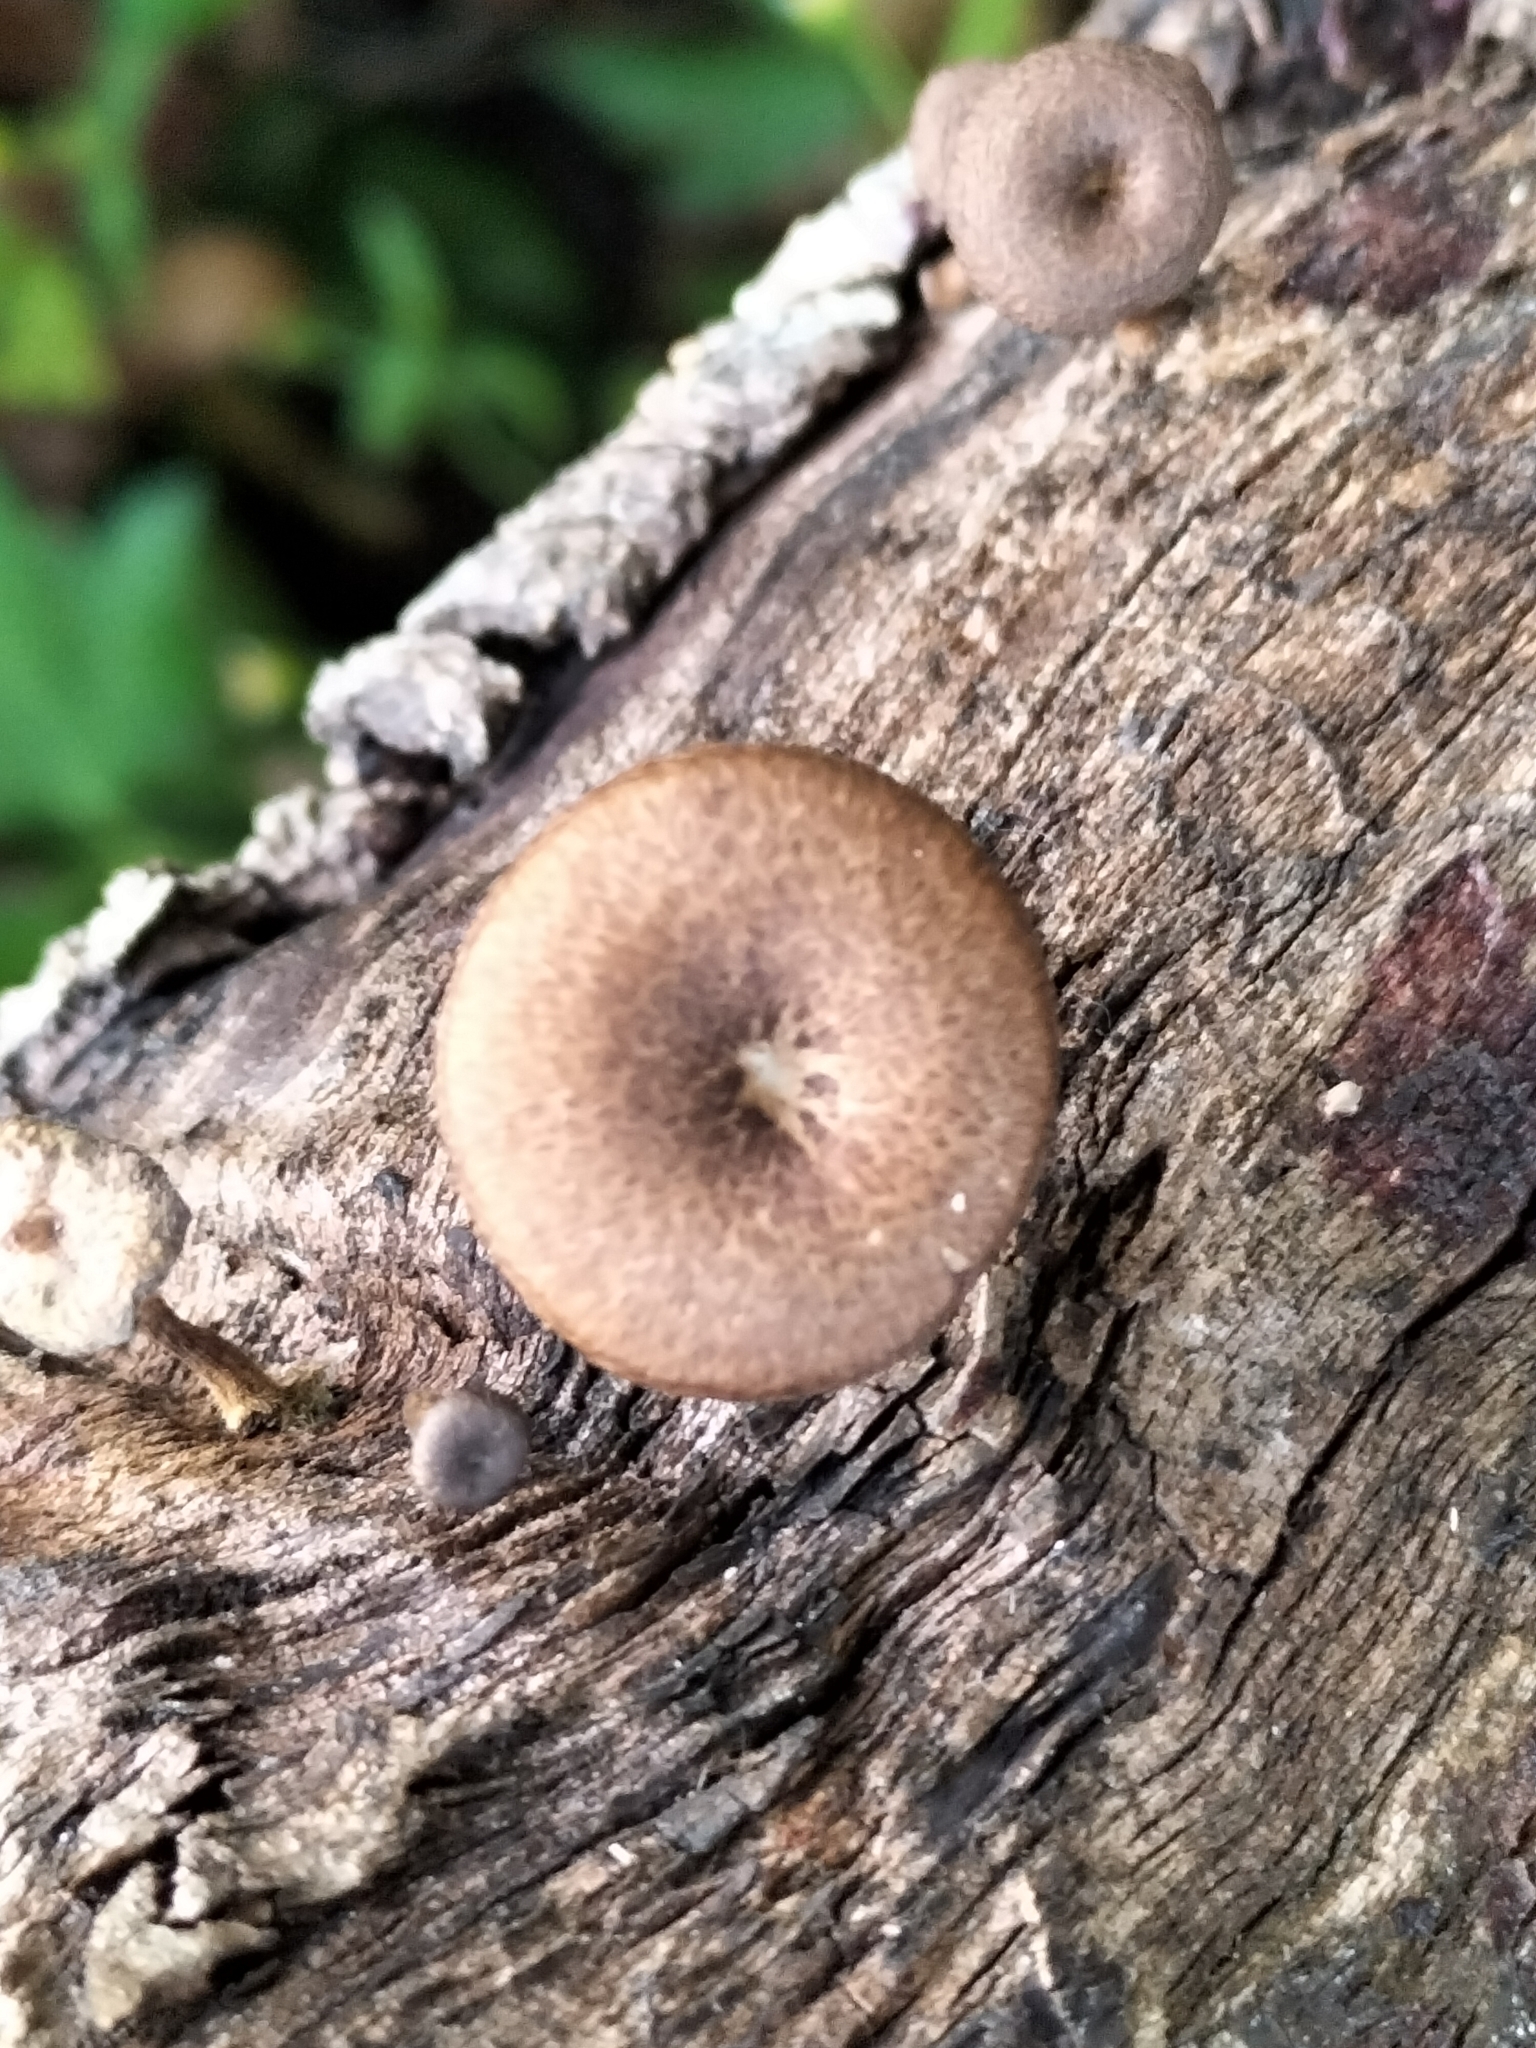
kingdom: Fungi
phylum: Basidiomycota
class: Agaricomycetes
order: Polyporales
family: Polyporaceae
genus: Lentinus
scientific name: Lentinus arcularius
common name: Spring polypore
